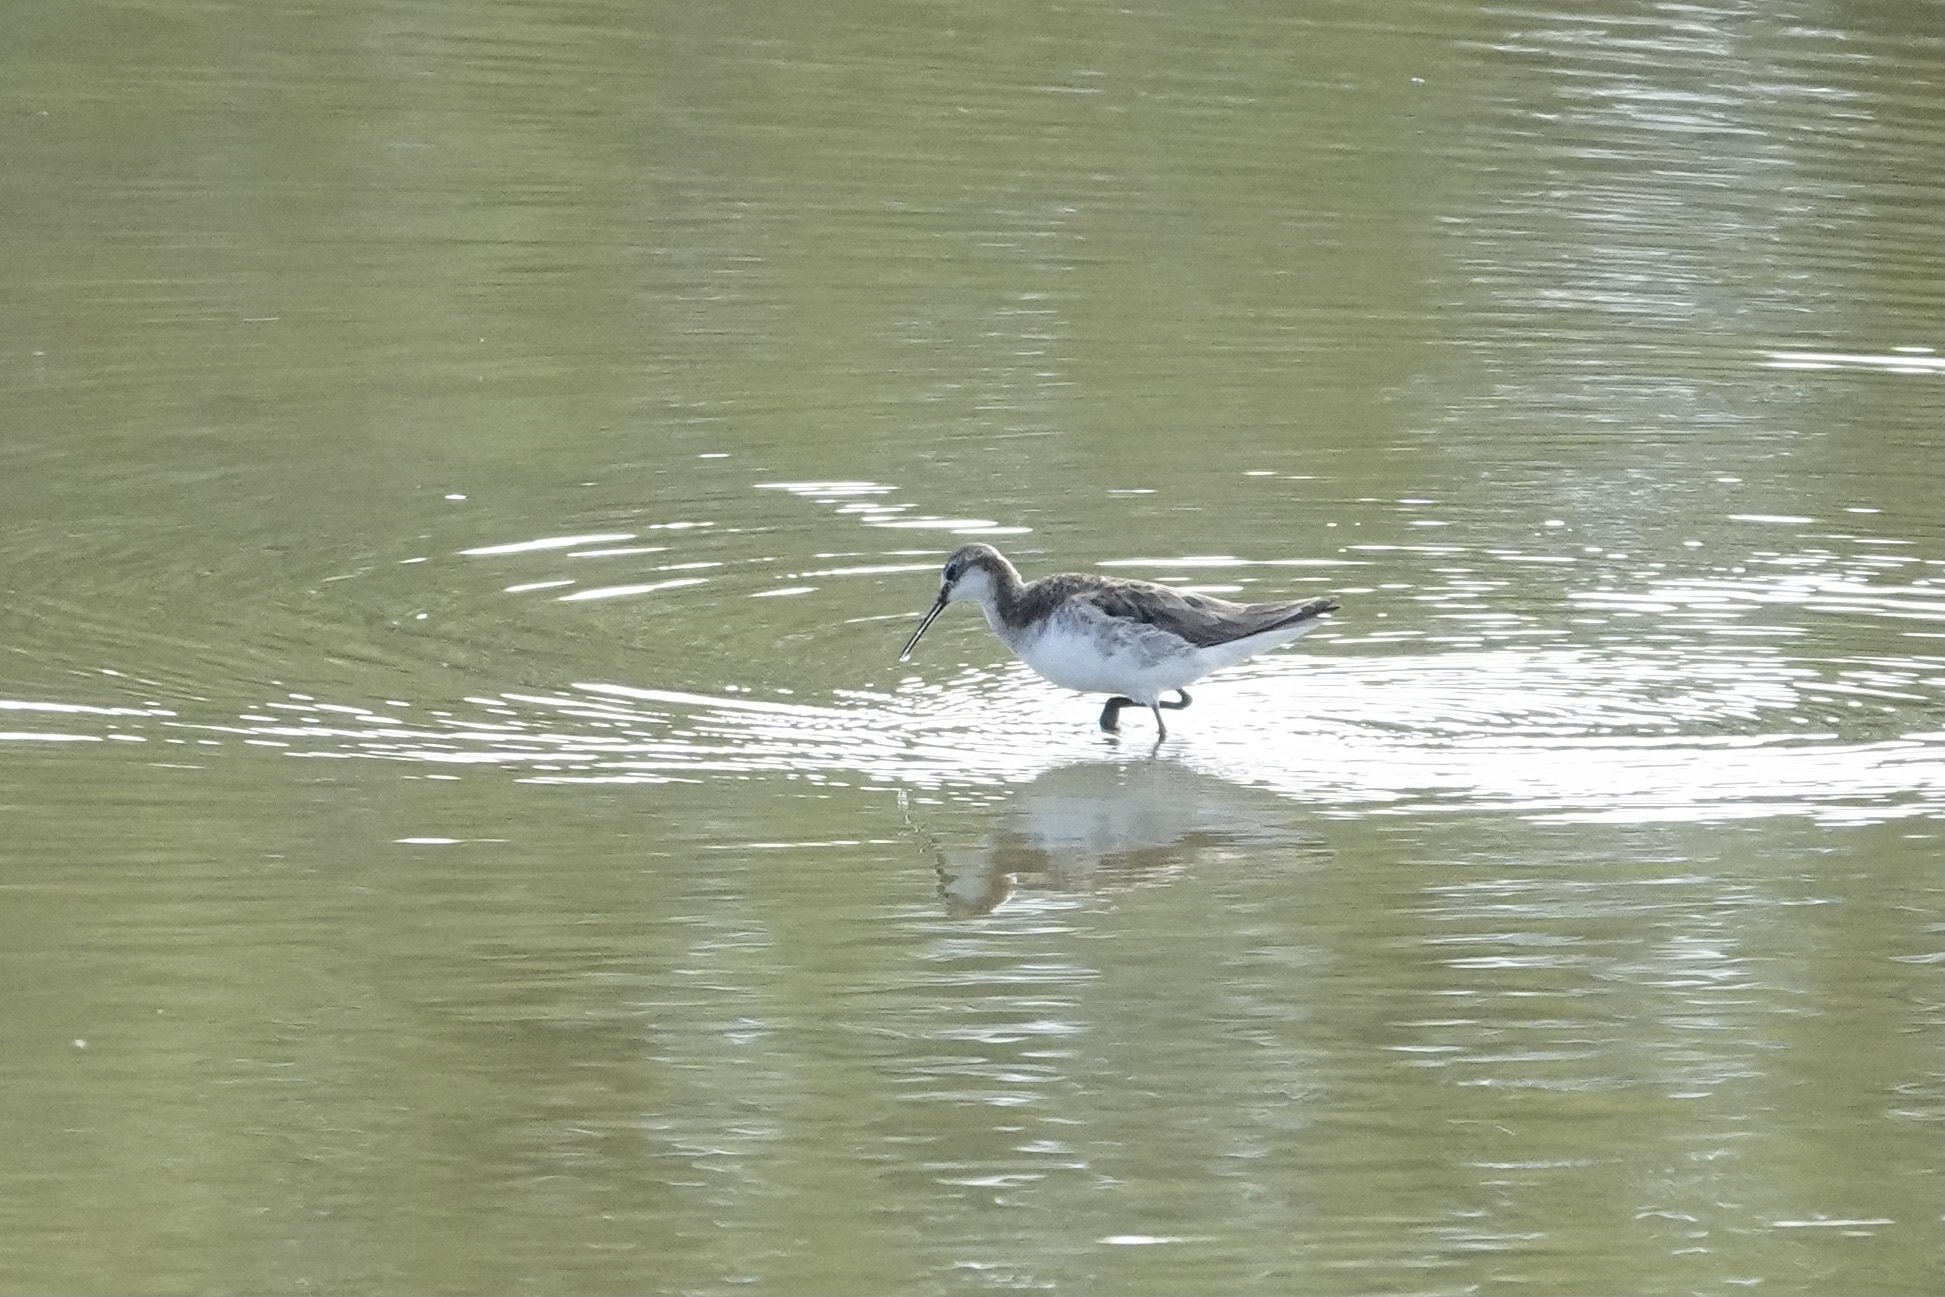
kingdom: Animalia
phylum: Chordata
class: Aves
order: Charadriiformes
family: Scolopacidae
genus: Phalaropus
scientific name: Phalaropus tricolor
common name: Wilson's phalarope
